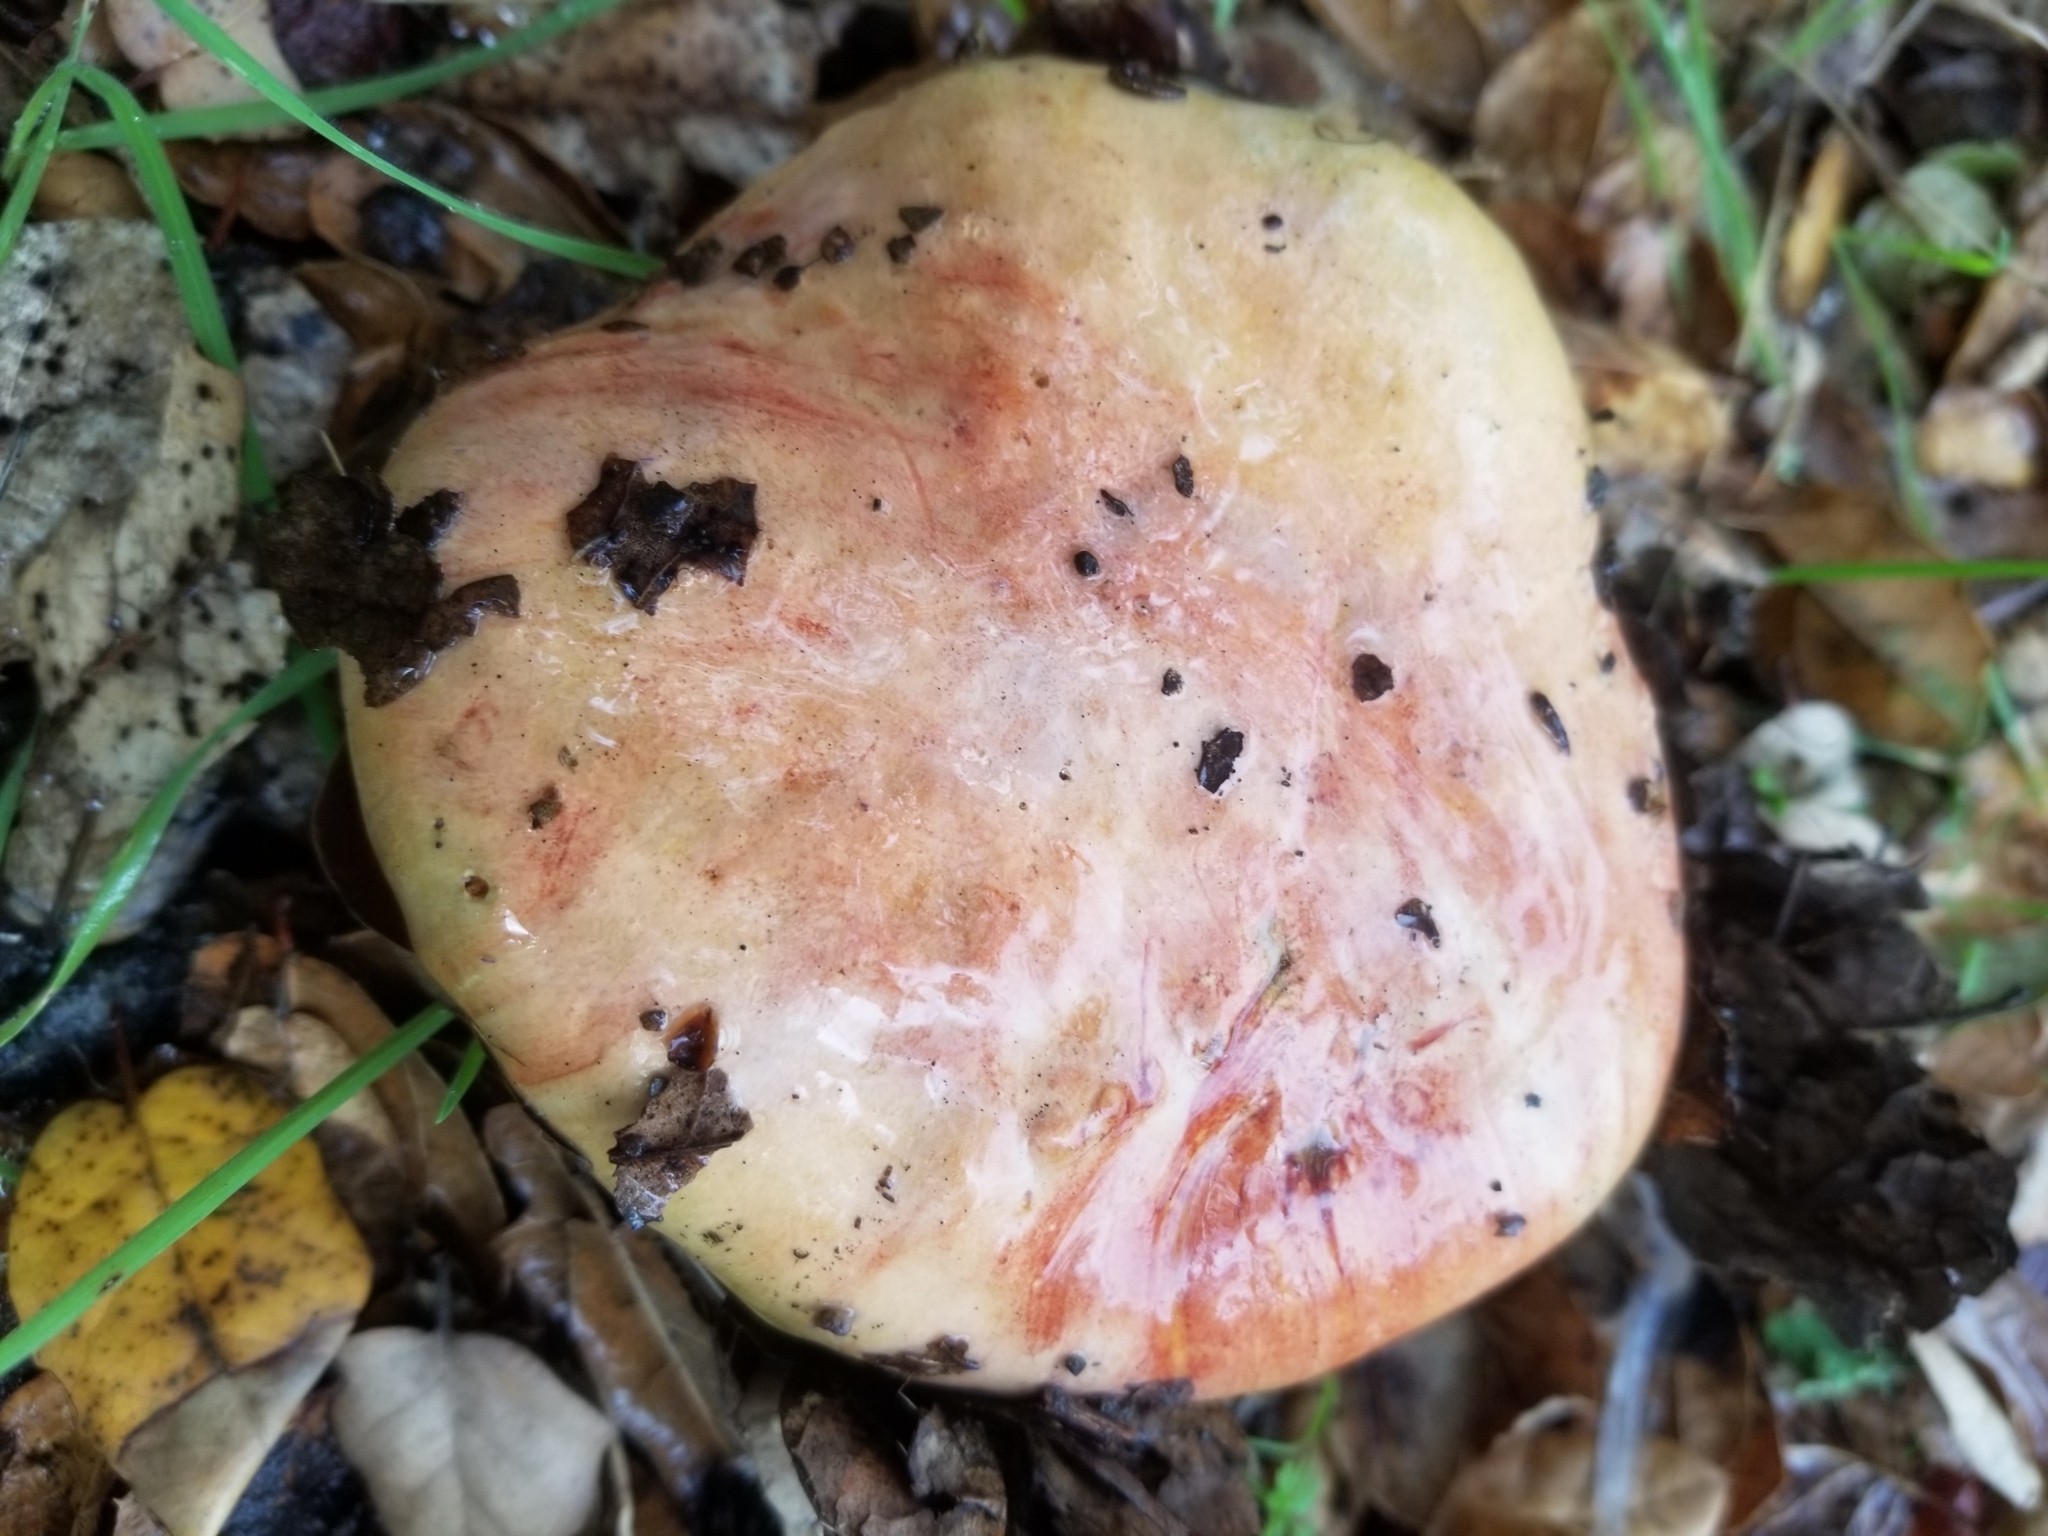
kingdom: Fungi
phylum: Basidiomycota
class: Agaricomycetes
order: Boletales
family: Boletaceae
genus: Butyriboletus
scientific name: Butyriboletus querciregius
